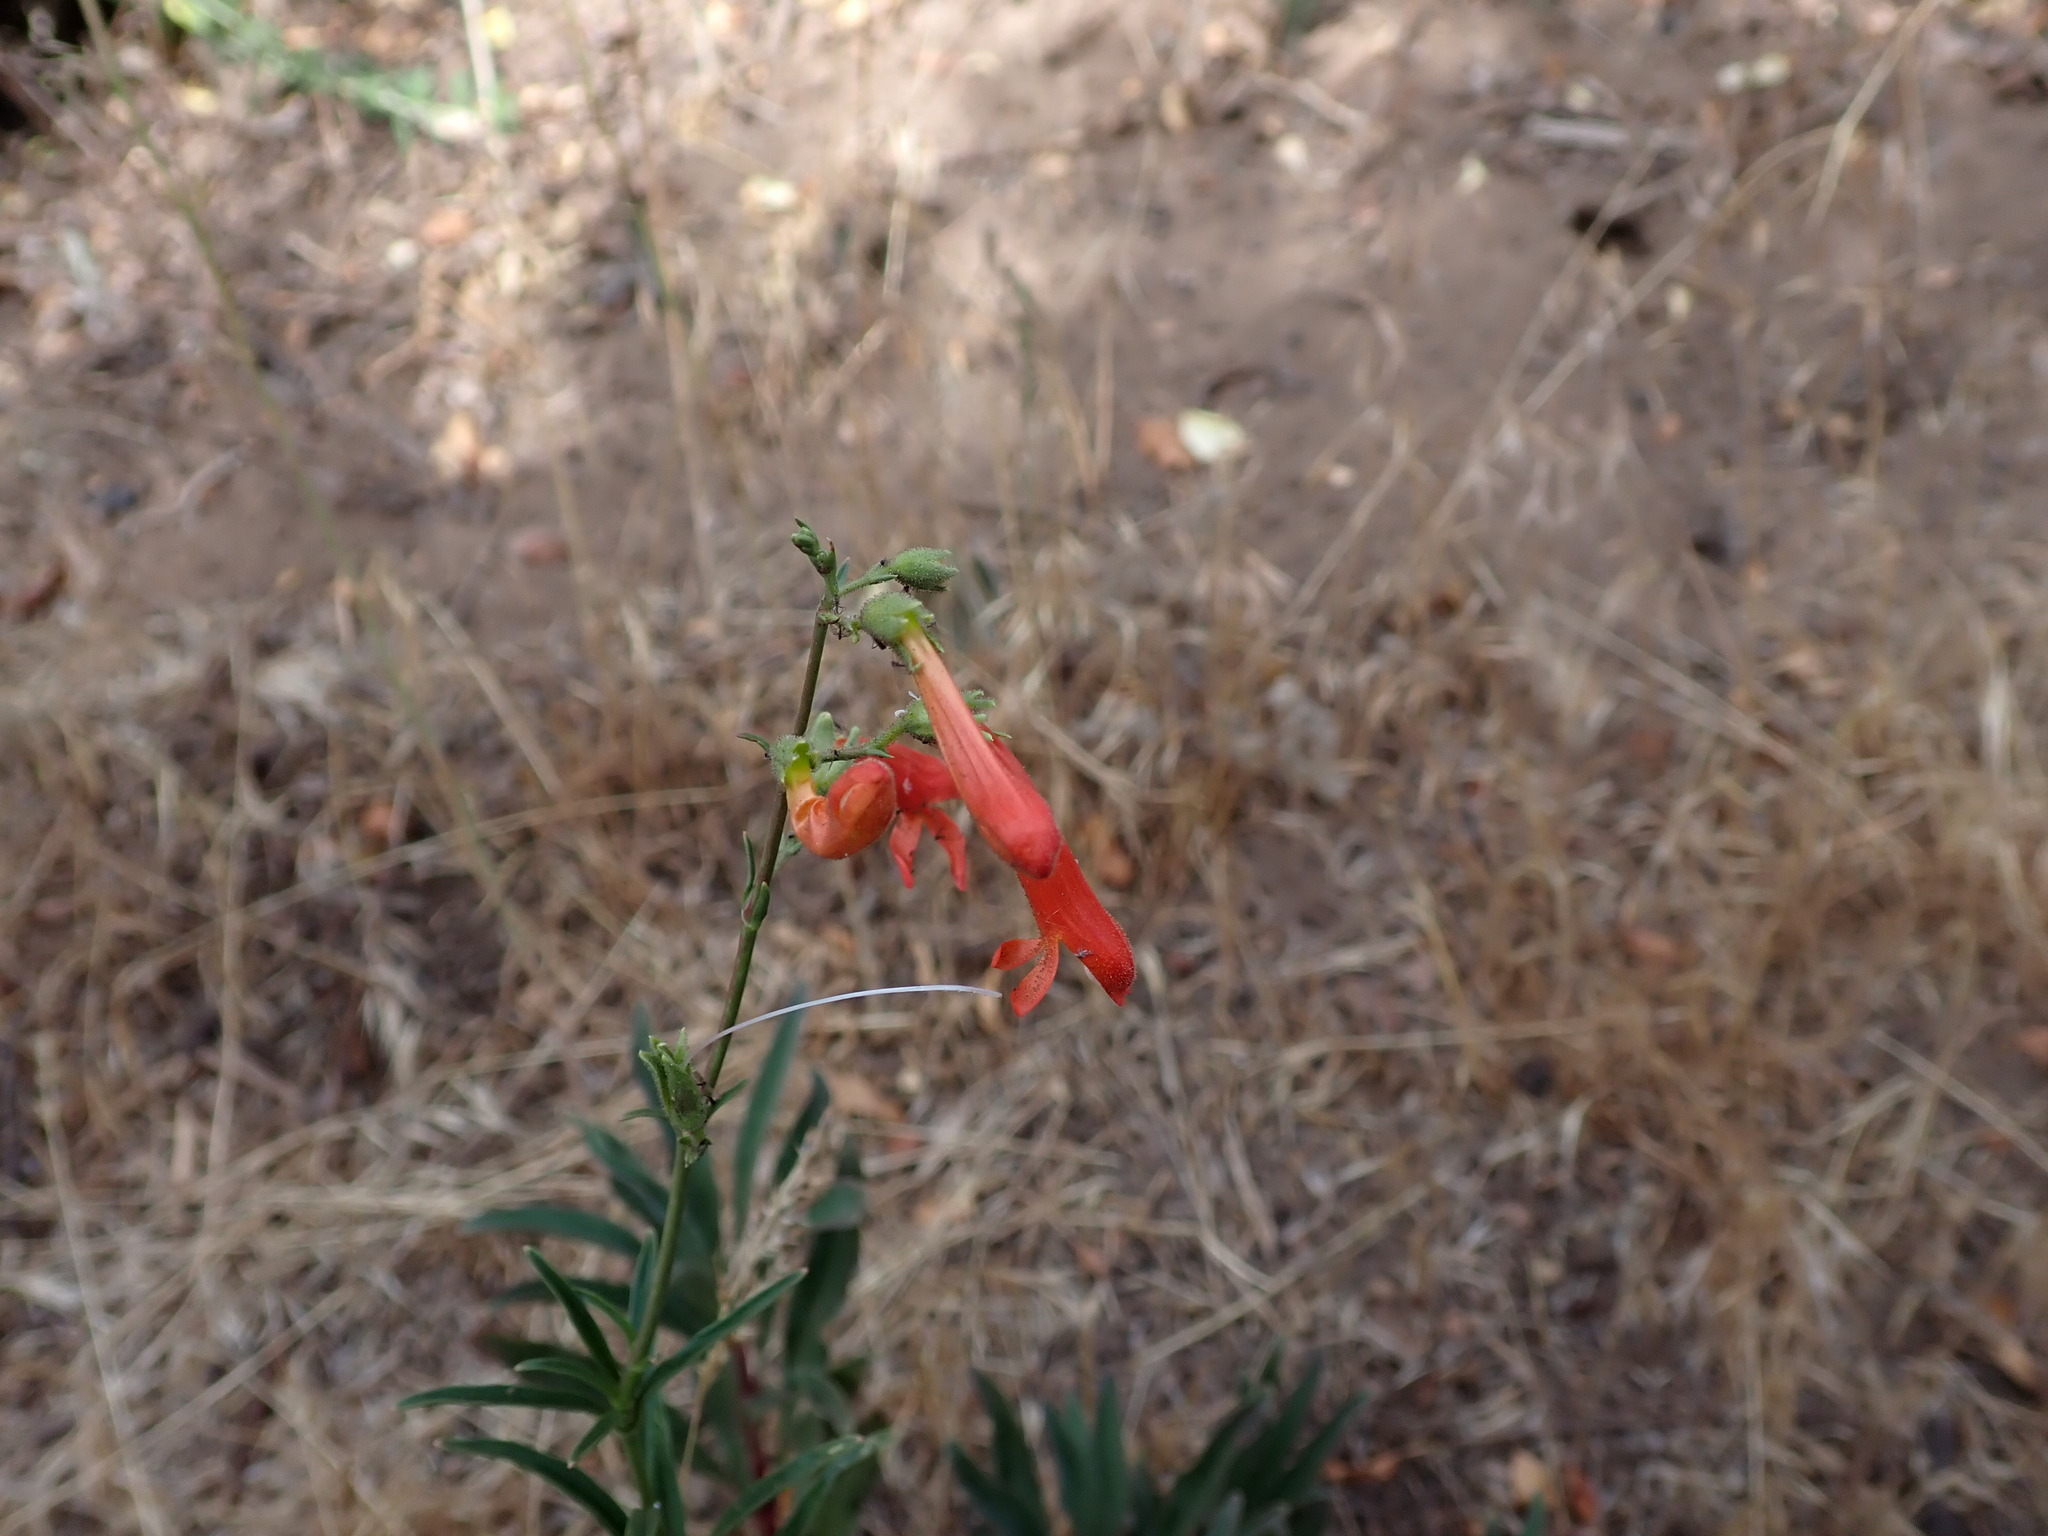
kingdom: Plantae
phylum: Tracheophyta
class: Magnoliopsida
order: Lamiales
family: Plantaginaceae
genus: Penstemon
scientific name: Penstemon rostriflorus
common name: Bridges's penstemon
